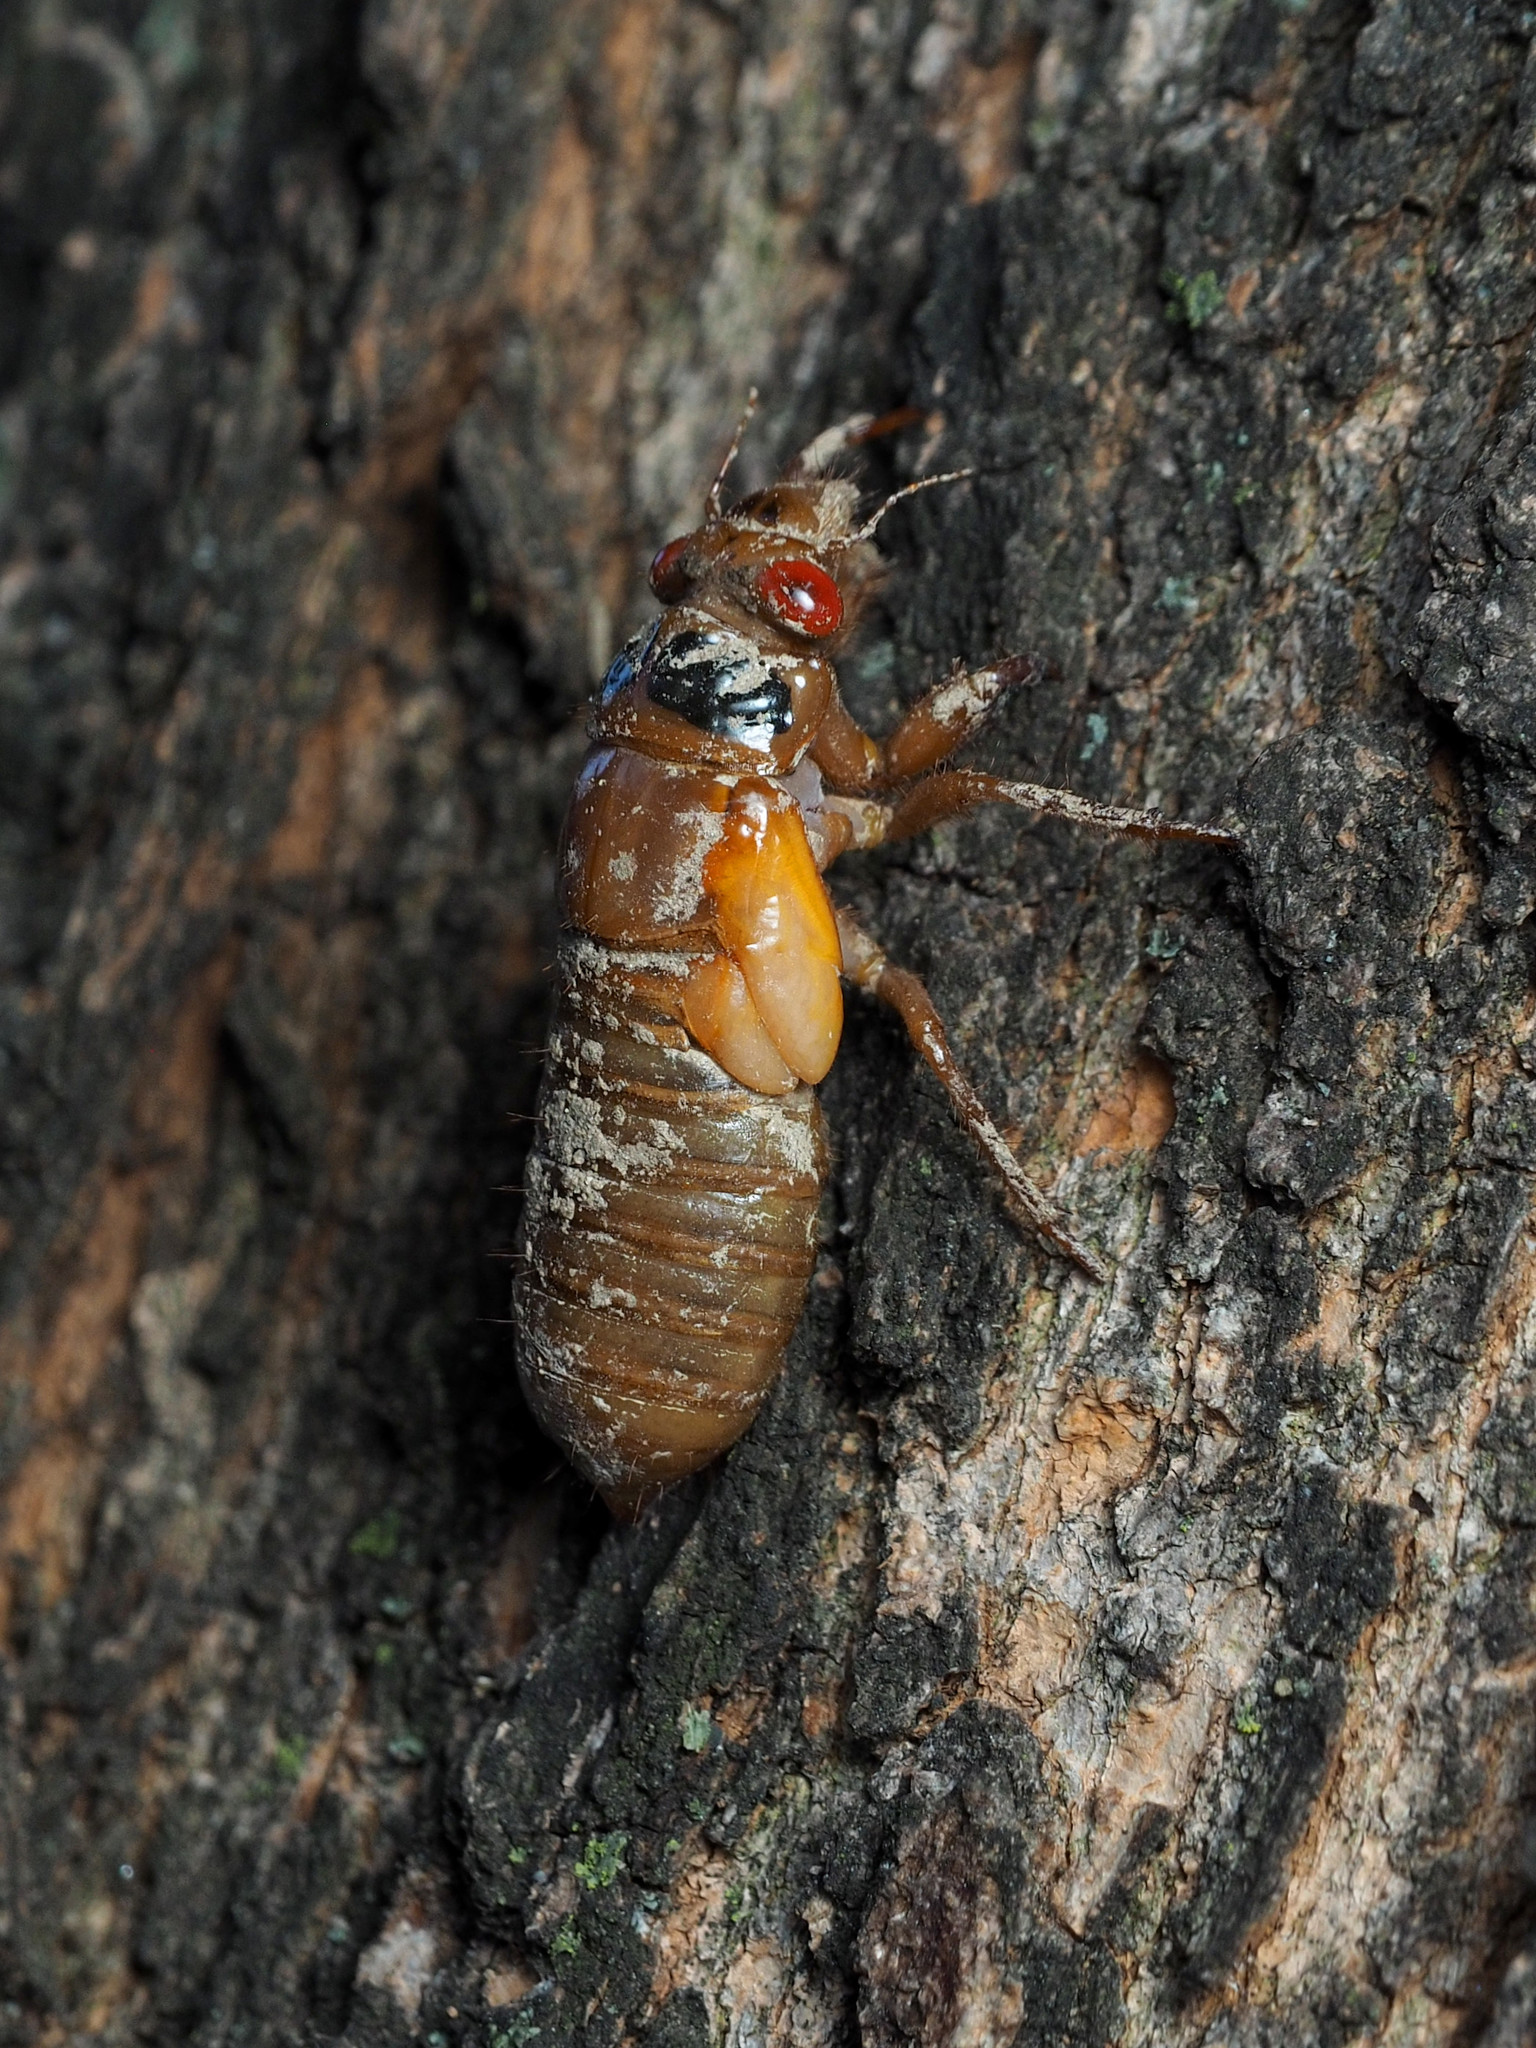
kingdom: Animalia
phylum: Arthropoda
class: Insecta
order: Hemiptera
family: Cicadidae
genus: Magicicada
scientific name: Magicicada
